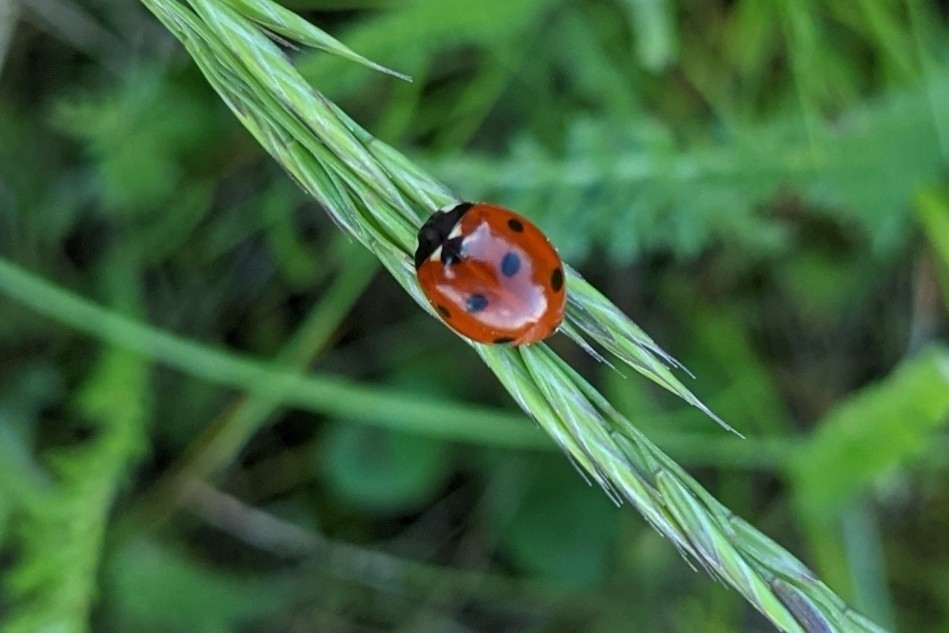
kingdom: Animalia
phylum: Arthropoda
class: Insecta
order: Coleoptera
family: Coccinellidae
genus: Coccinella
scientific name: Coccinella septempunctata
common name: Sevenspotted lady beetle
